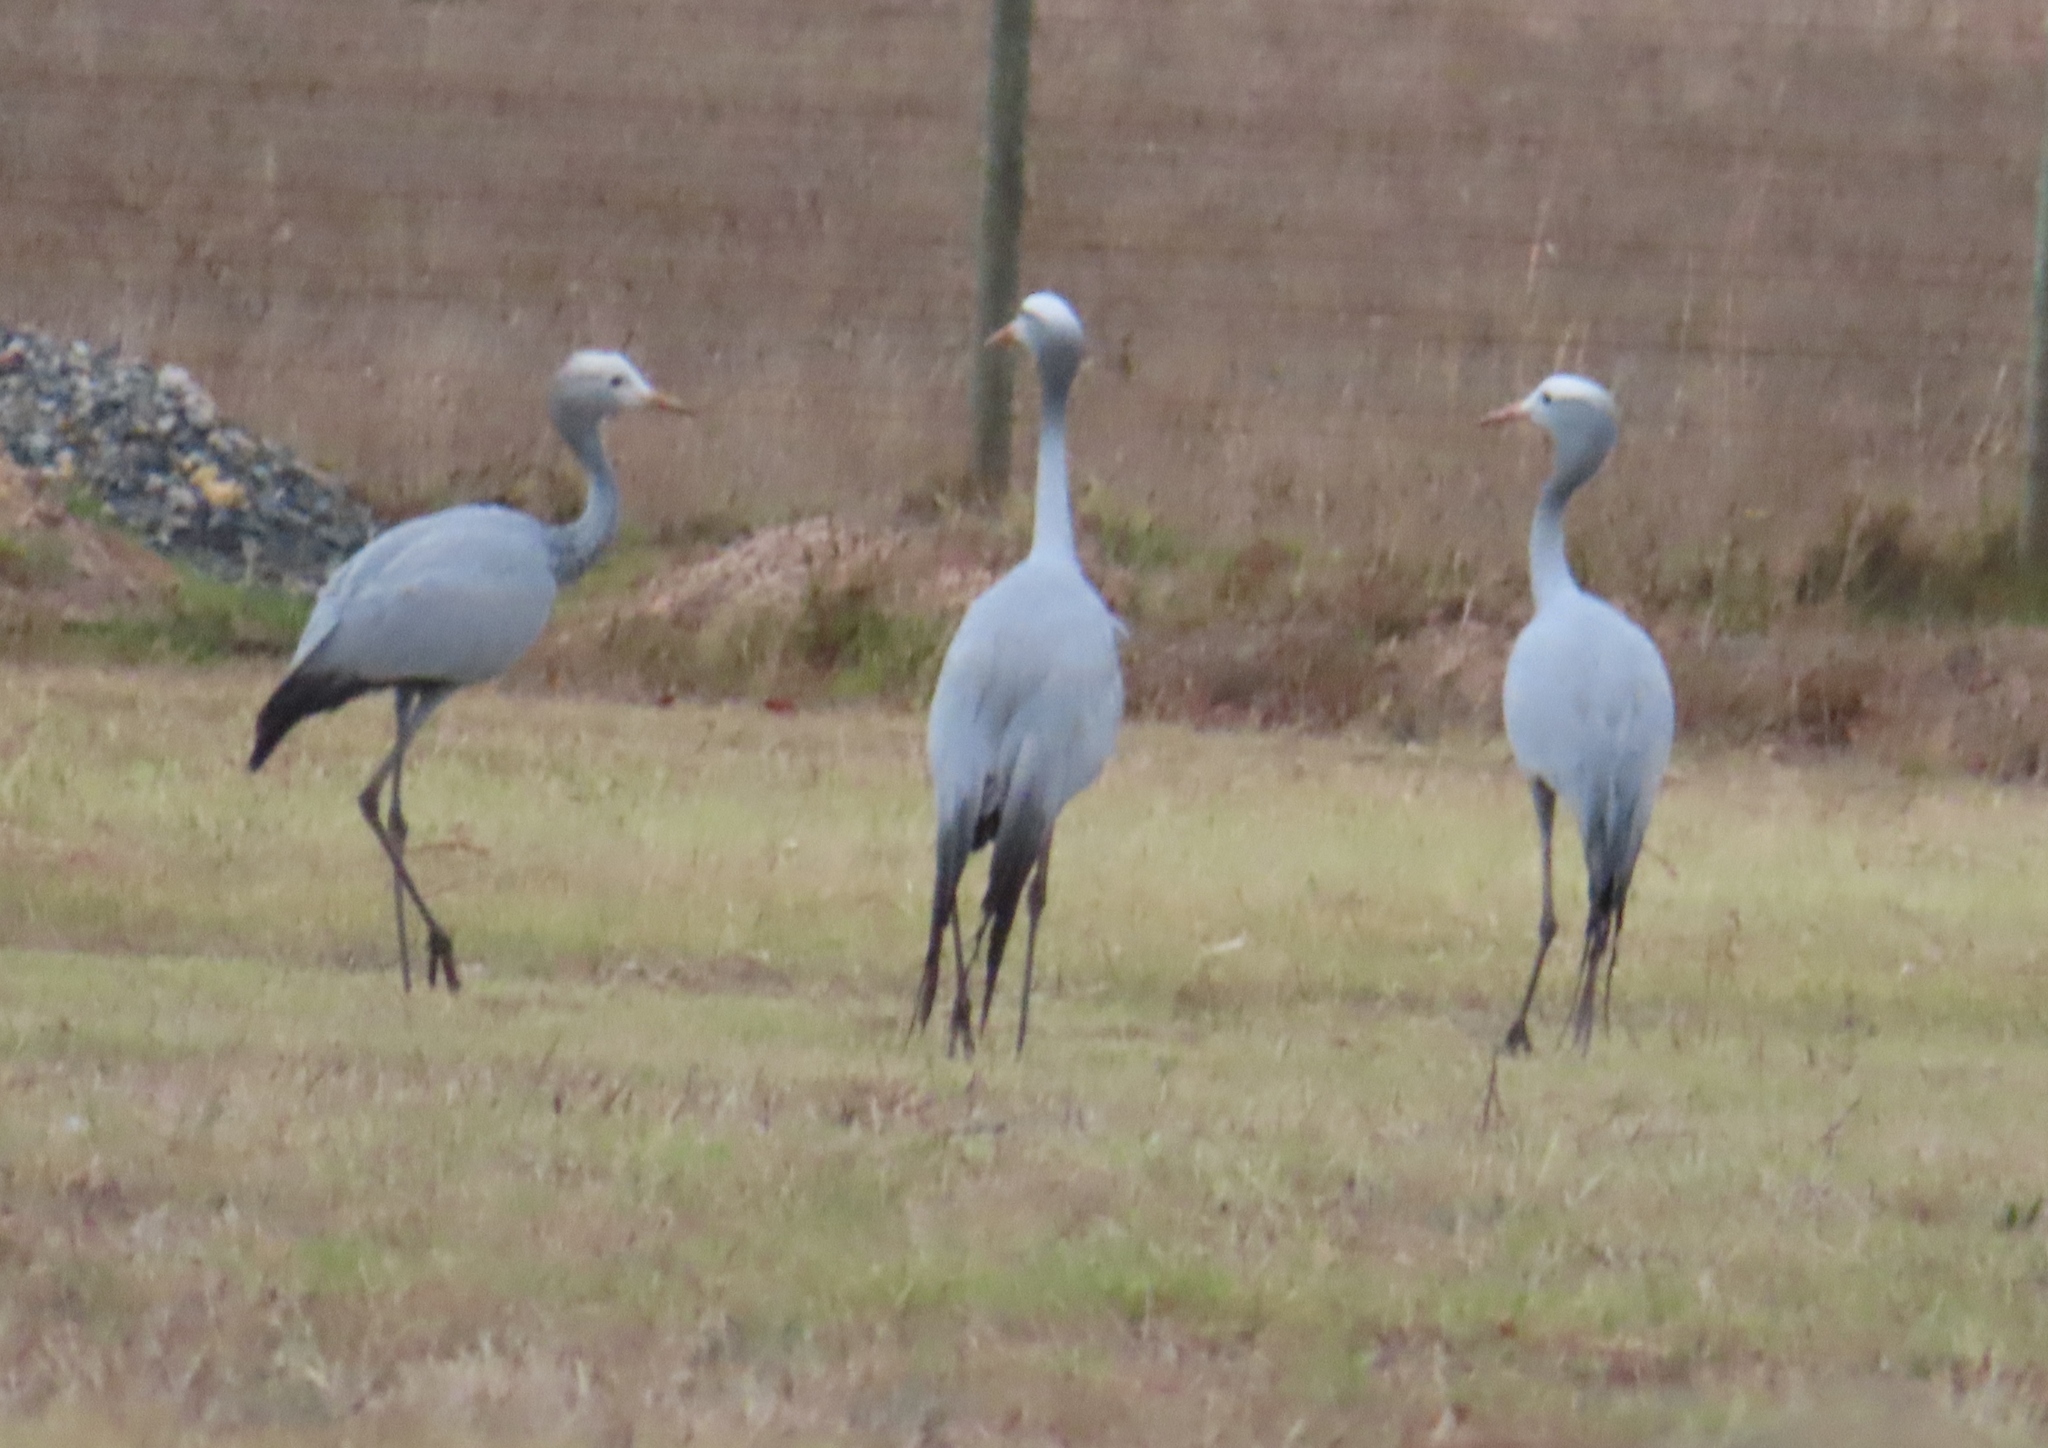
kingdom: Animalia
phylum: Chordata
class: Aves
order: Gruiformes
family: Gruidae
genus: Anthropoides
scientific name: Anthropoides paradiseus
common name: Blue crane
